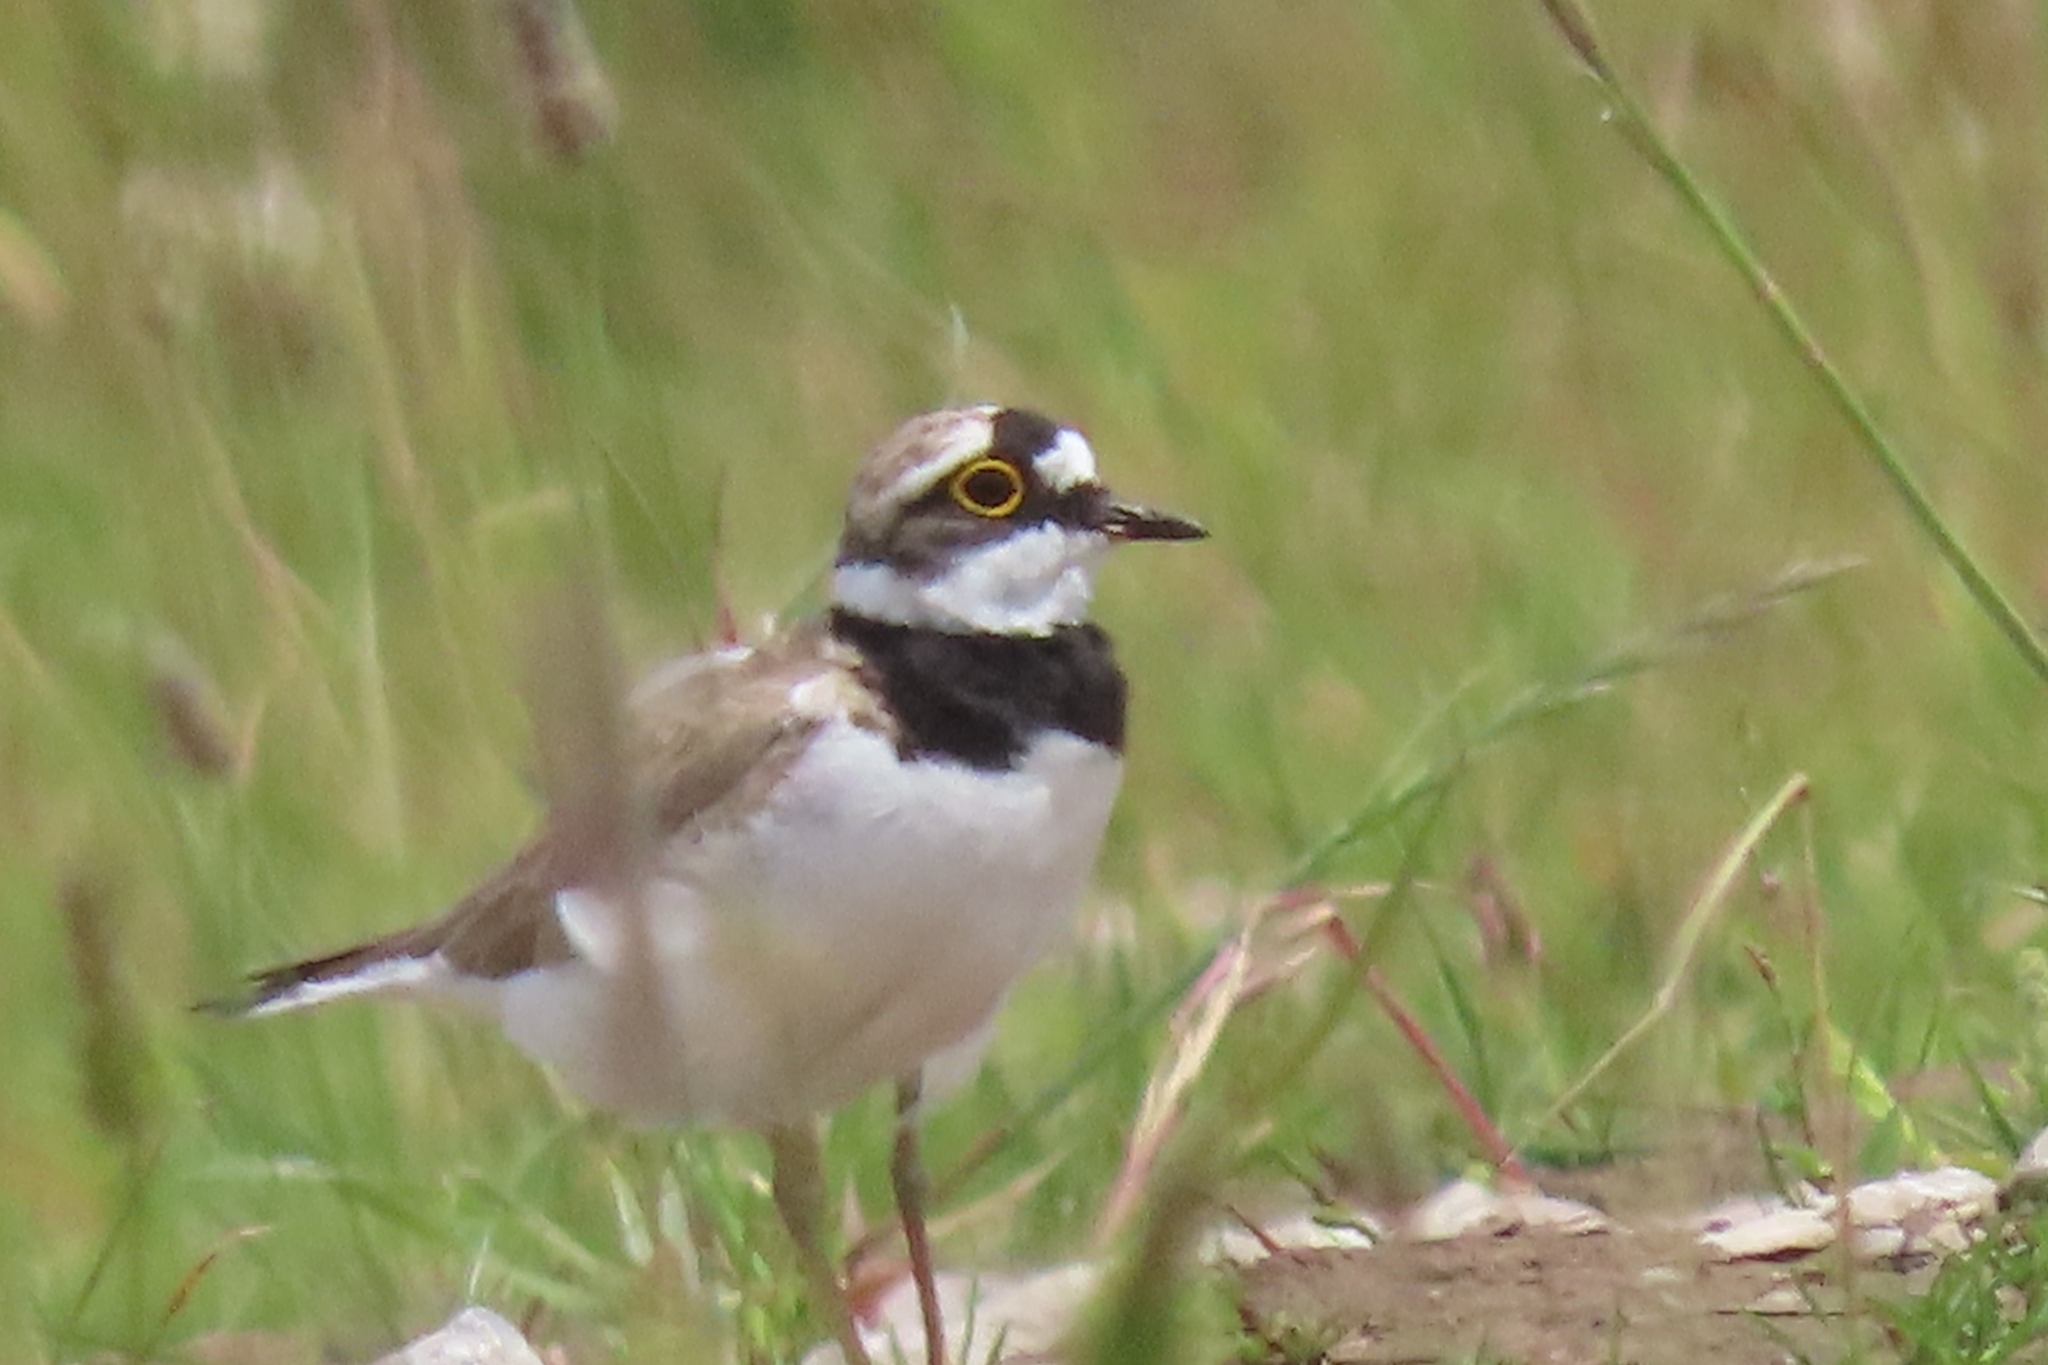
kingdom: Animalia
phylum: Chordata
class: Aves
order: Charadriiformes
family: Charadriidae
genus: Charadrius
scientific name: Charadrius dubius
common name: Little ringed plover
